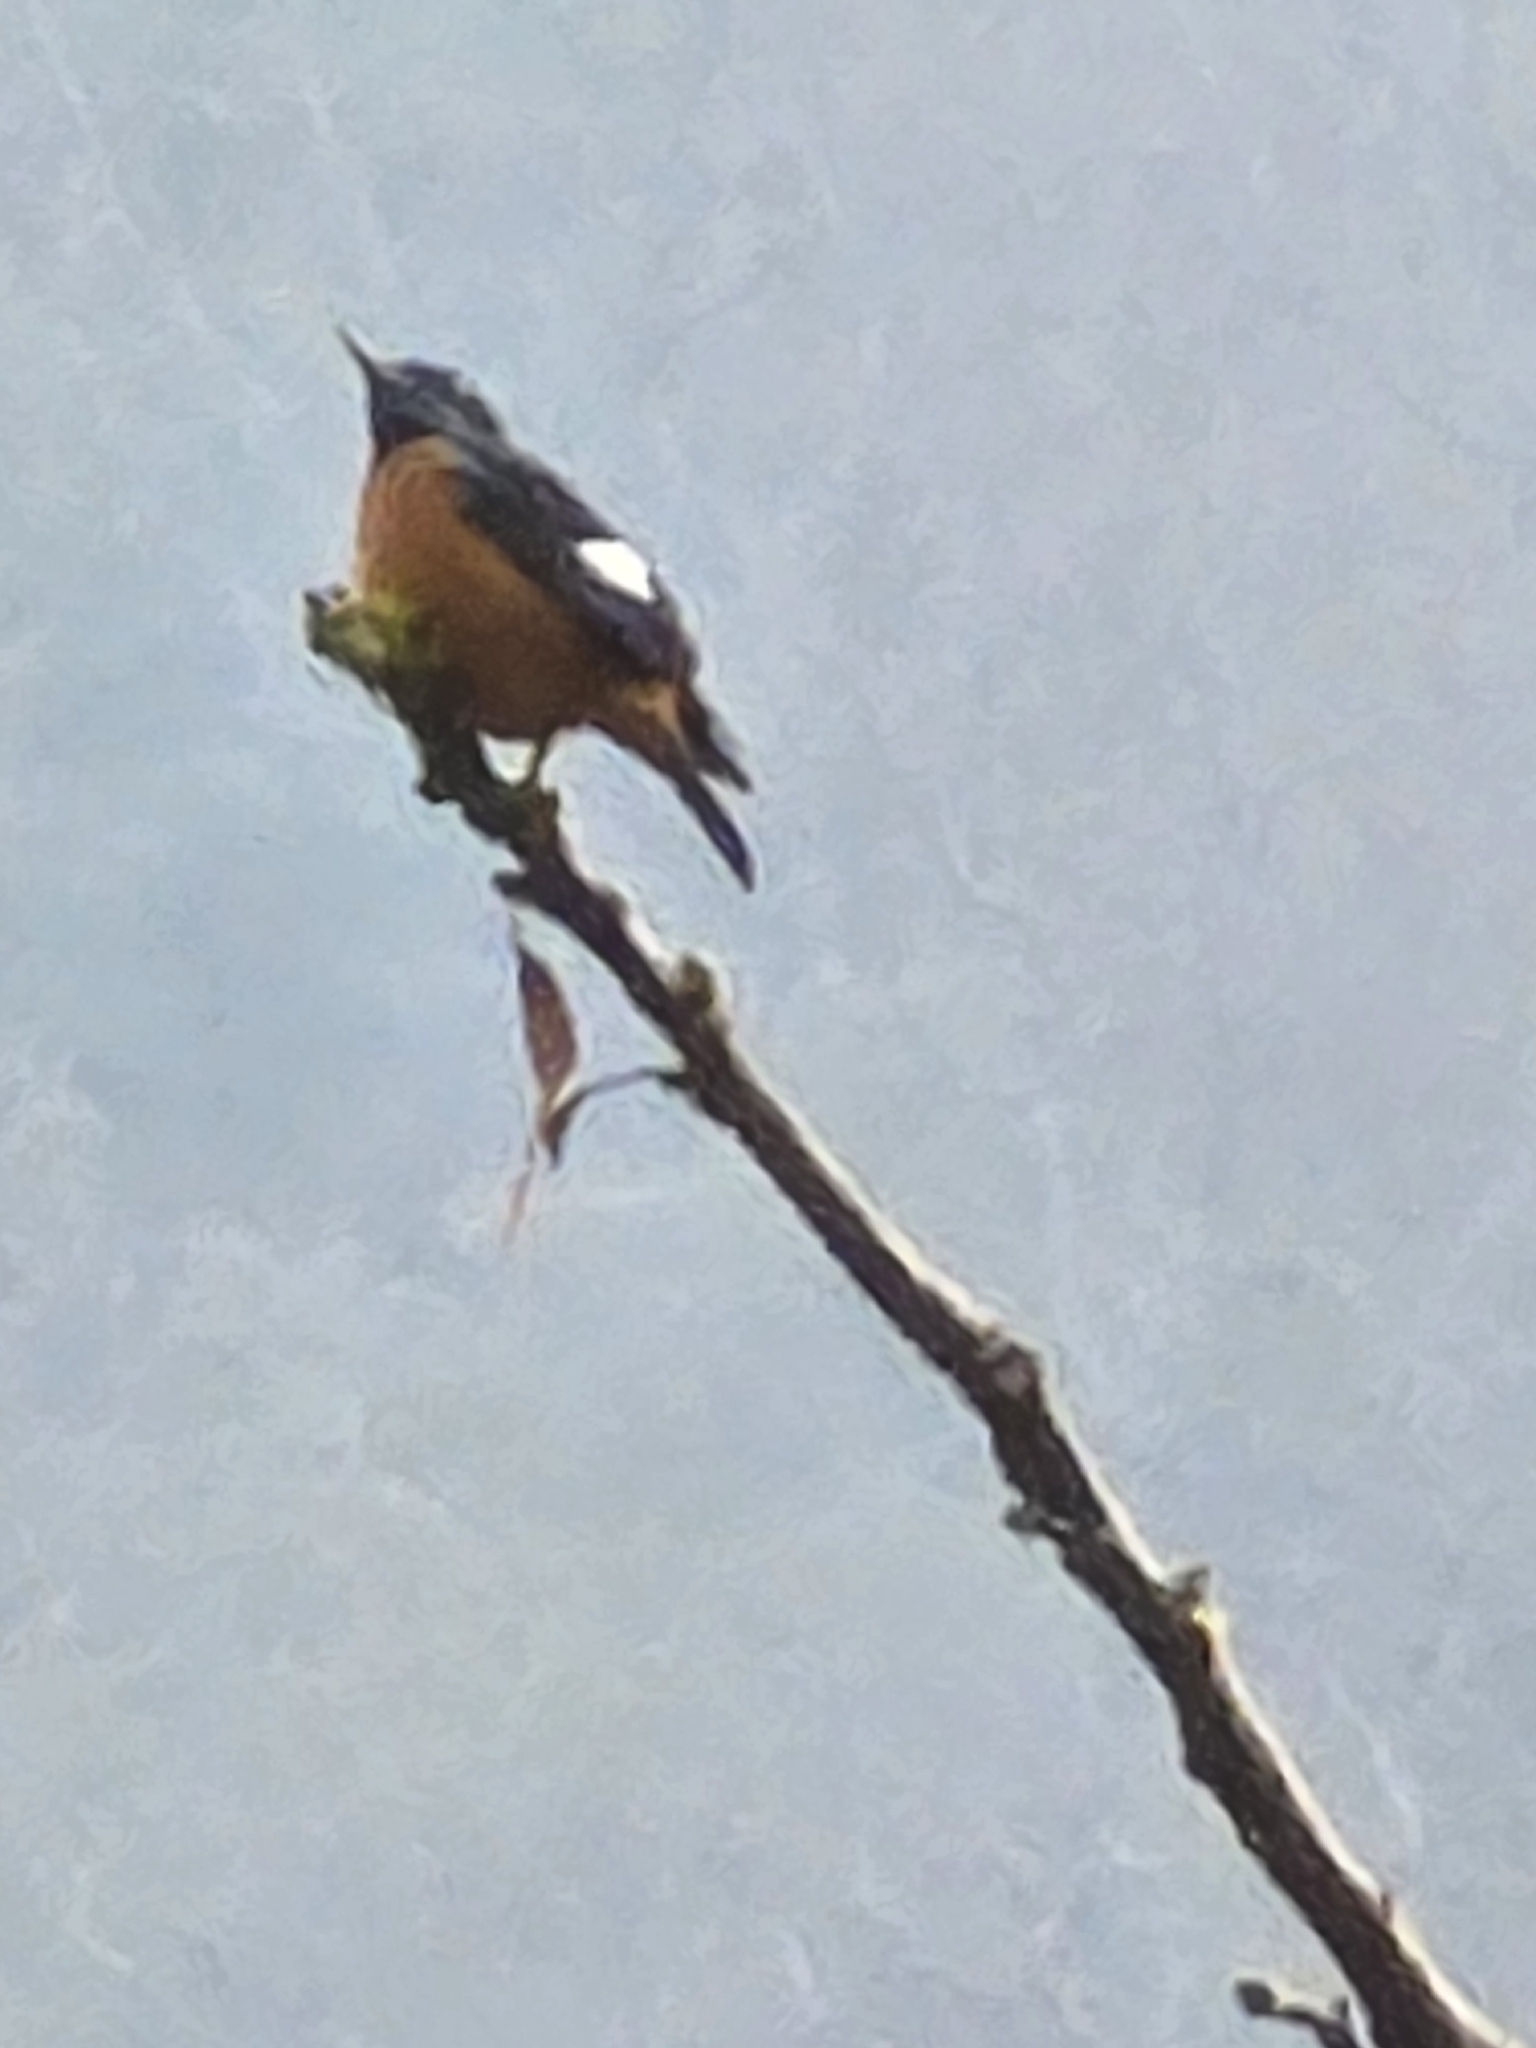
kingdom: Animalia
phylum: Chordata
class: Aves
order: Passeriformes
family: Muscicapidae
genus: Monticola
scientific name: Monticola cinclorhynchus
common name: Blue-capped rock thrush
